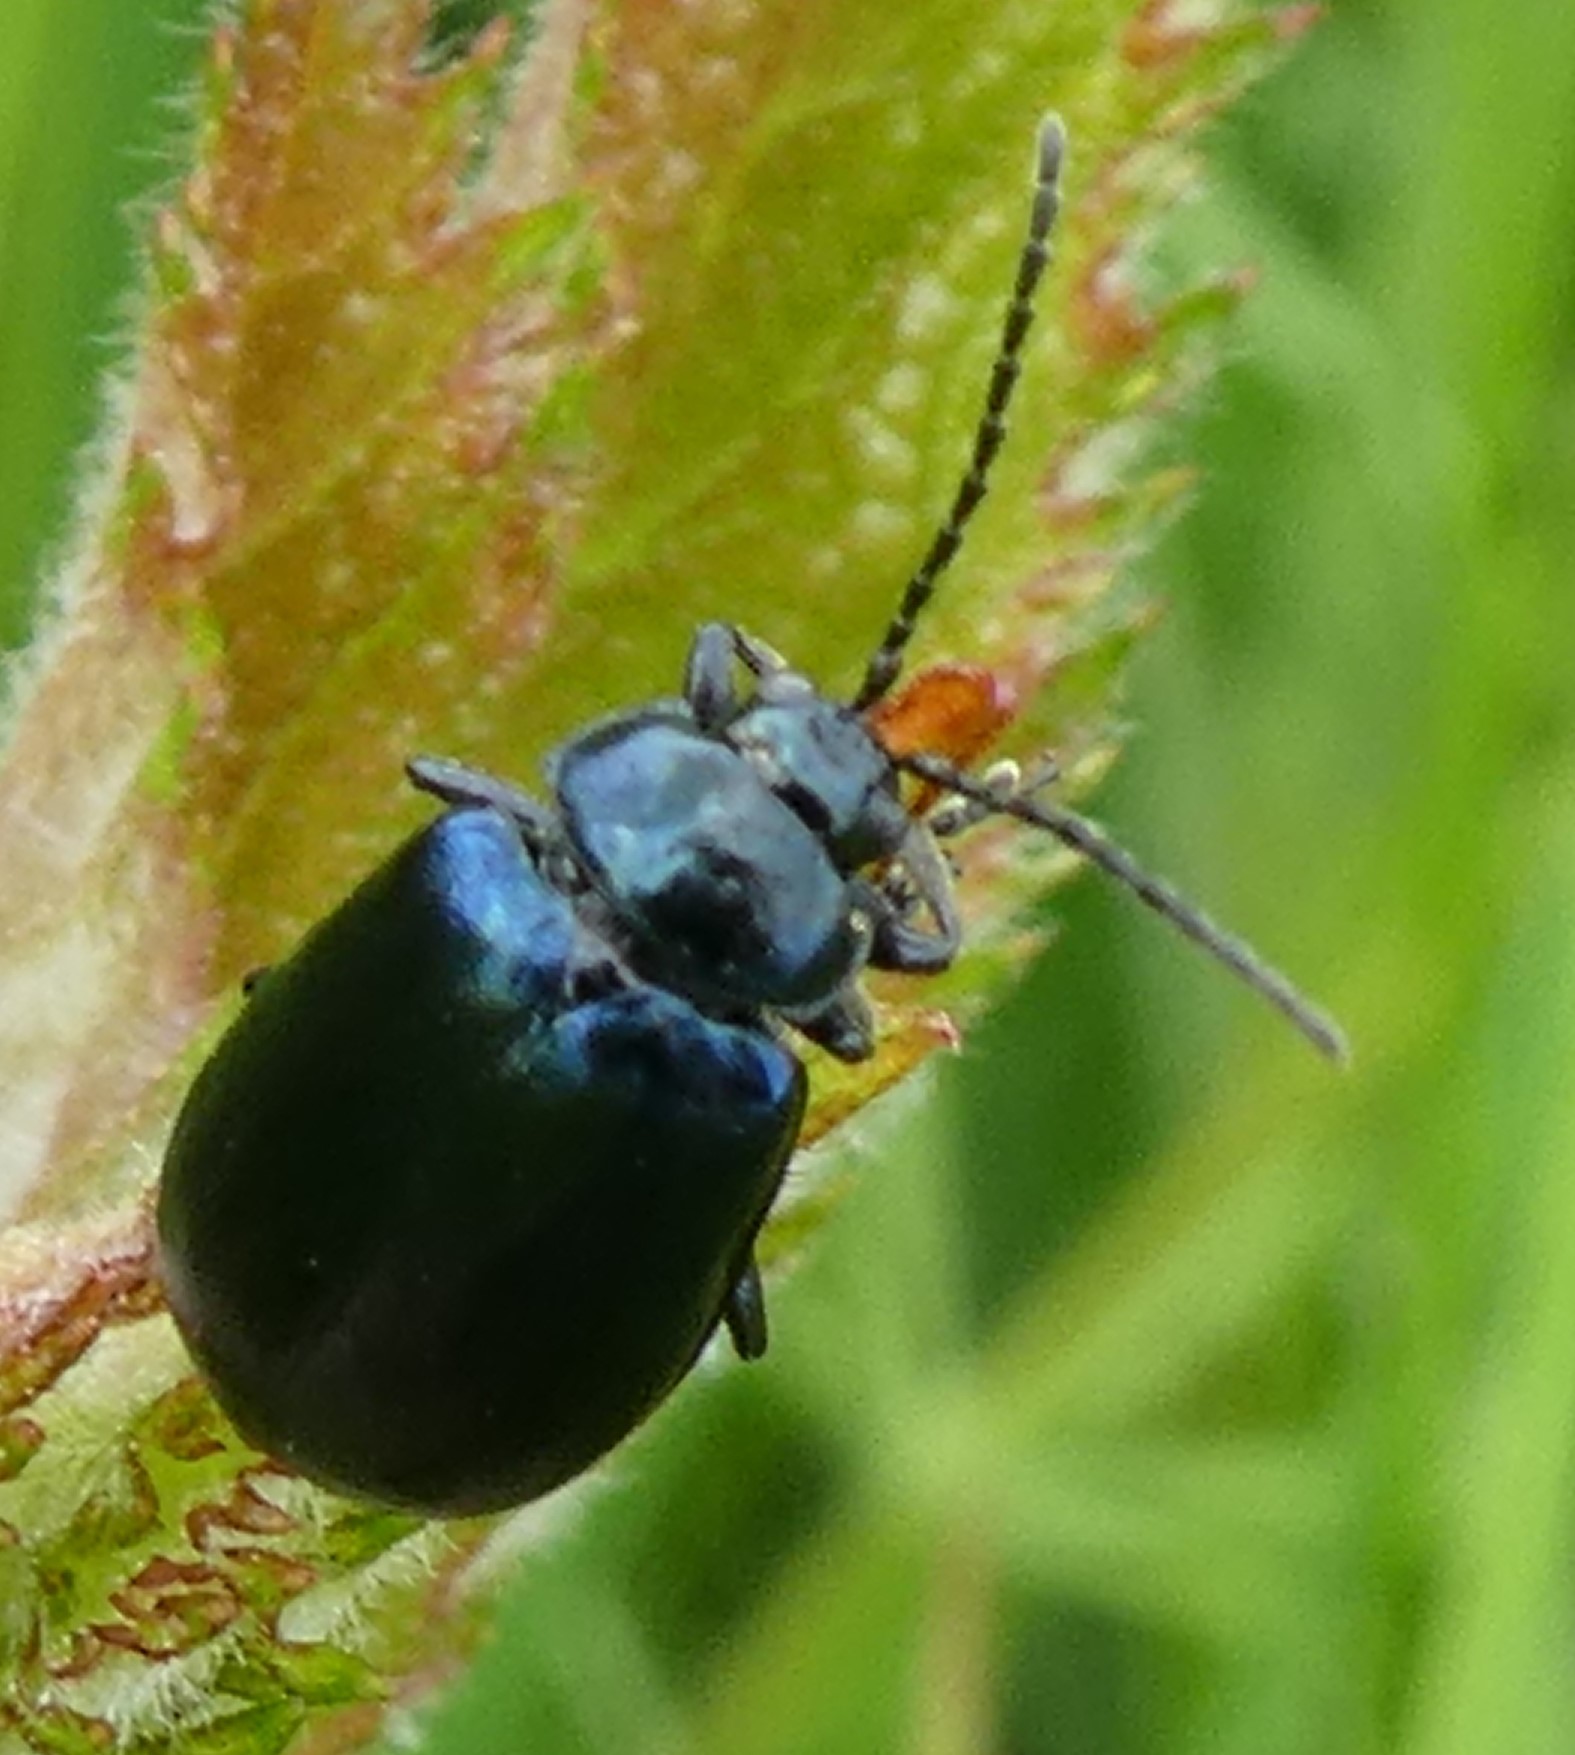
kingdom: Animalia
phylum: Arthropoda
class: Insecta
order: Coleoptera
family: Chrysomelidae
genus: Agelastica
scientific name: Agelastica alni
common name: Alder leaf beetle
